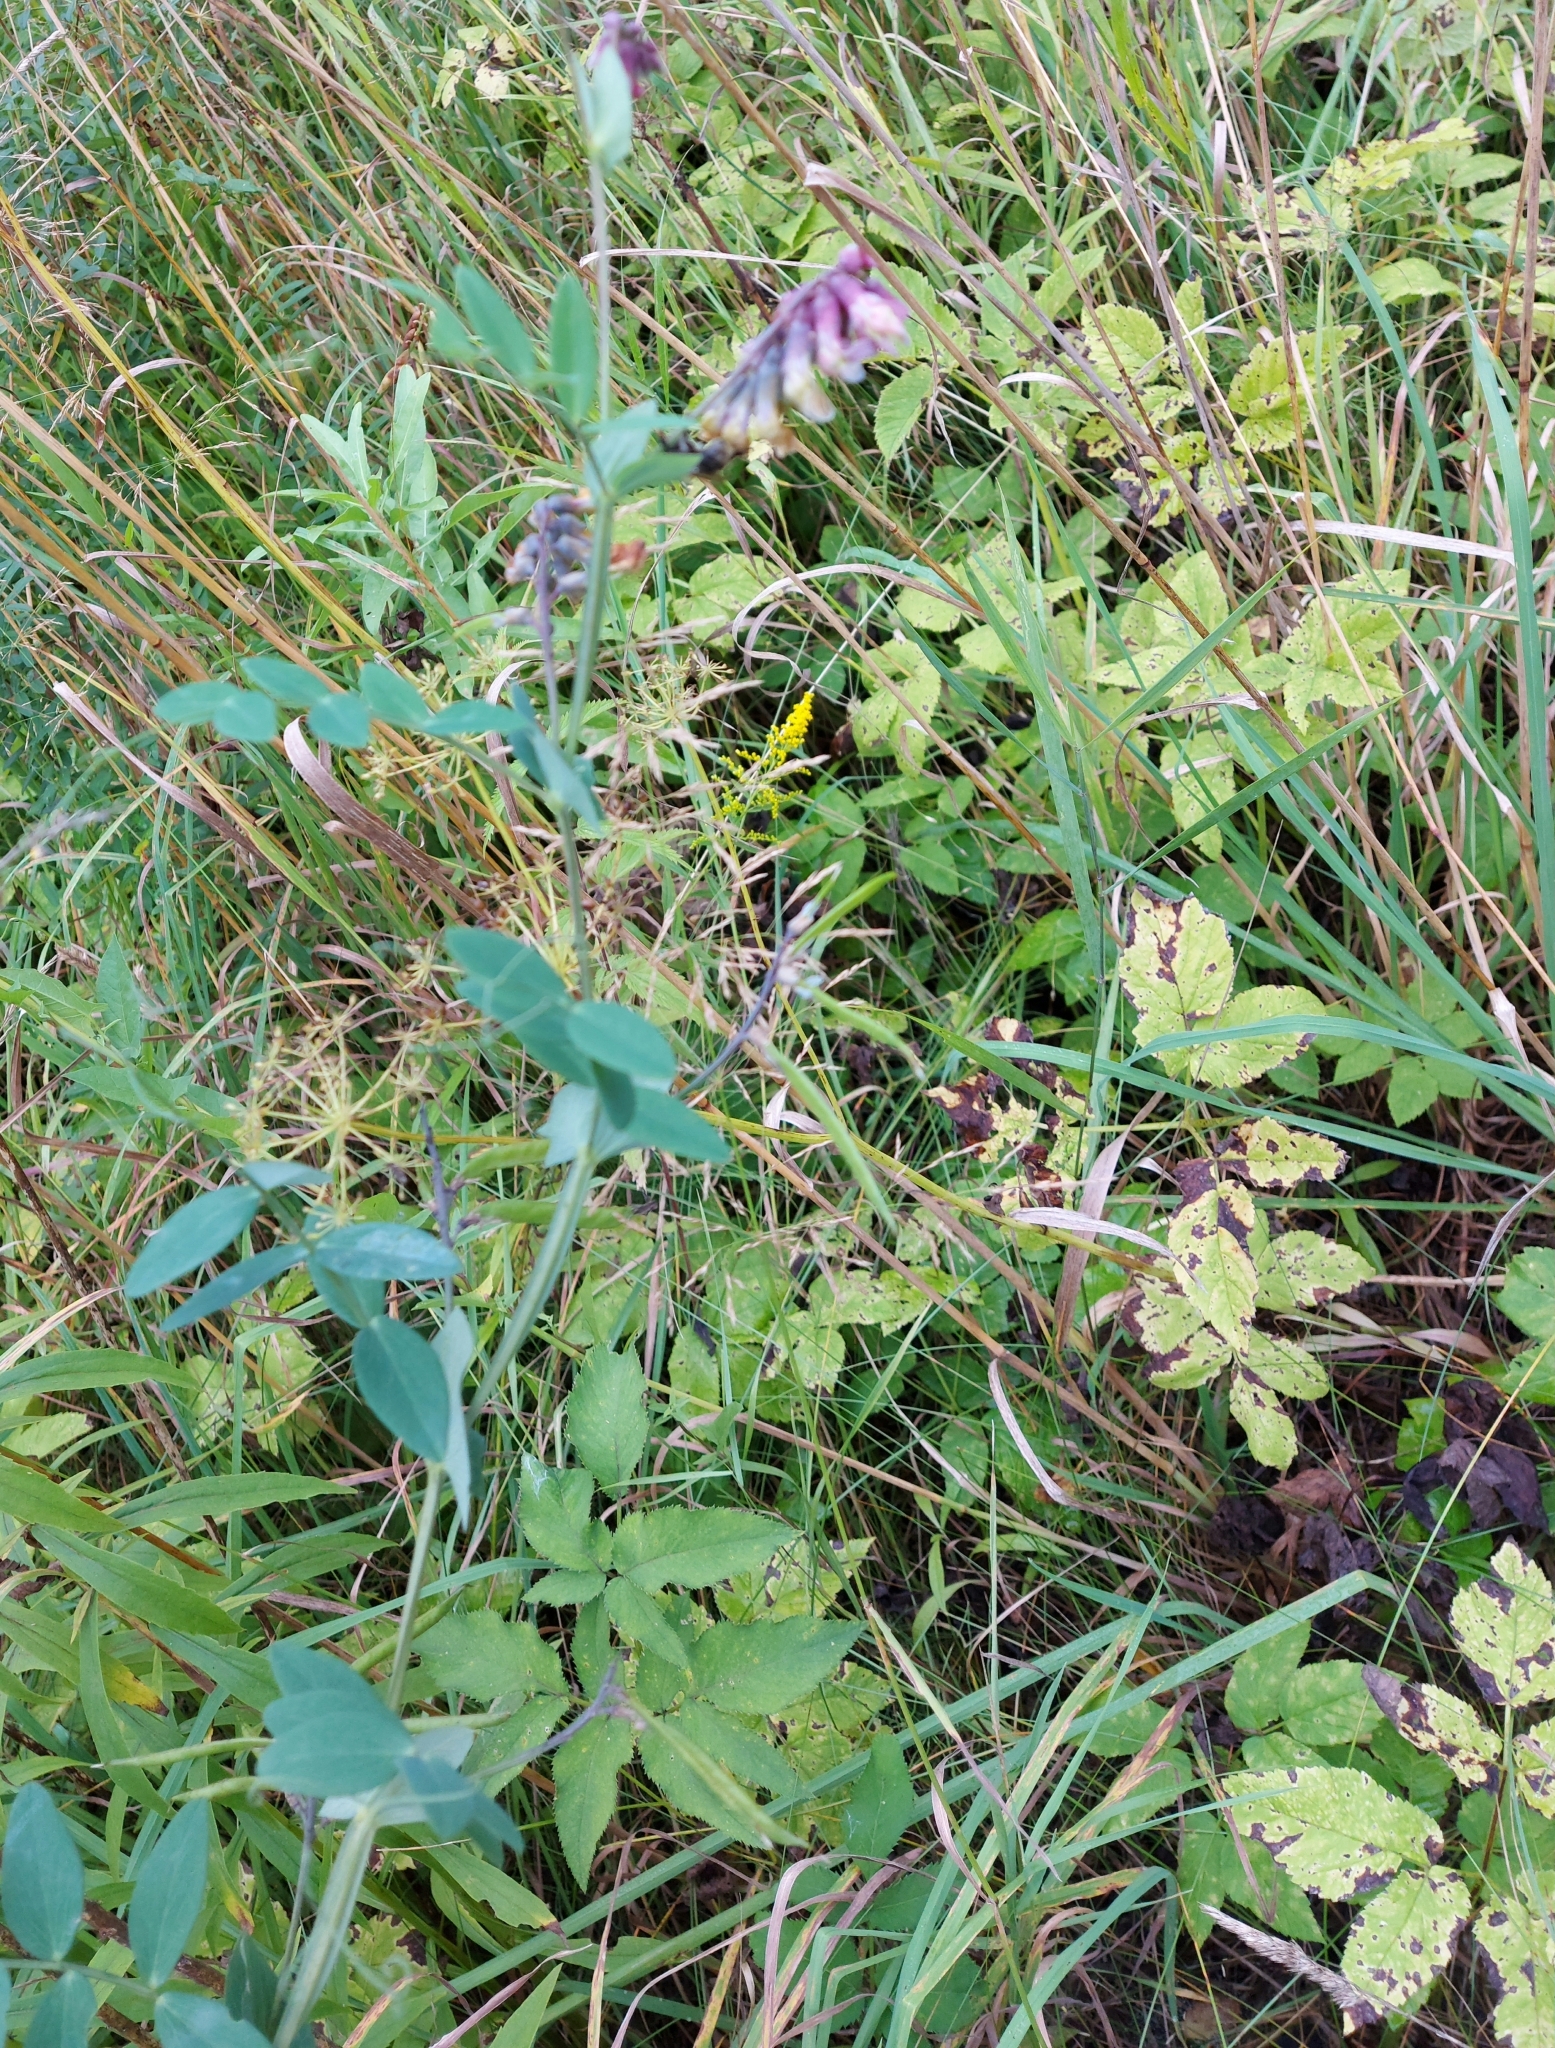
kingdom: Plantae
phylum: Tracheophyta
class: Magnoliopsida
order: Fabales
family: Fabaceae
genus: Lathyrus
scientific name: Lathyrus pisiformis
